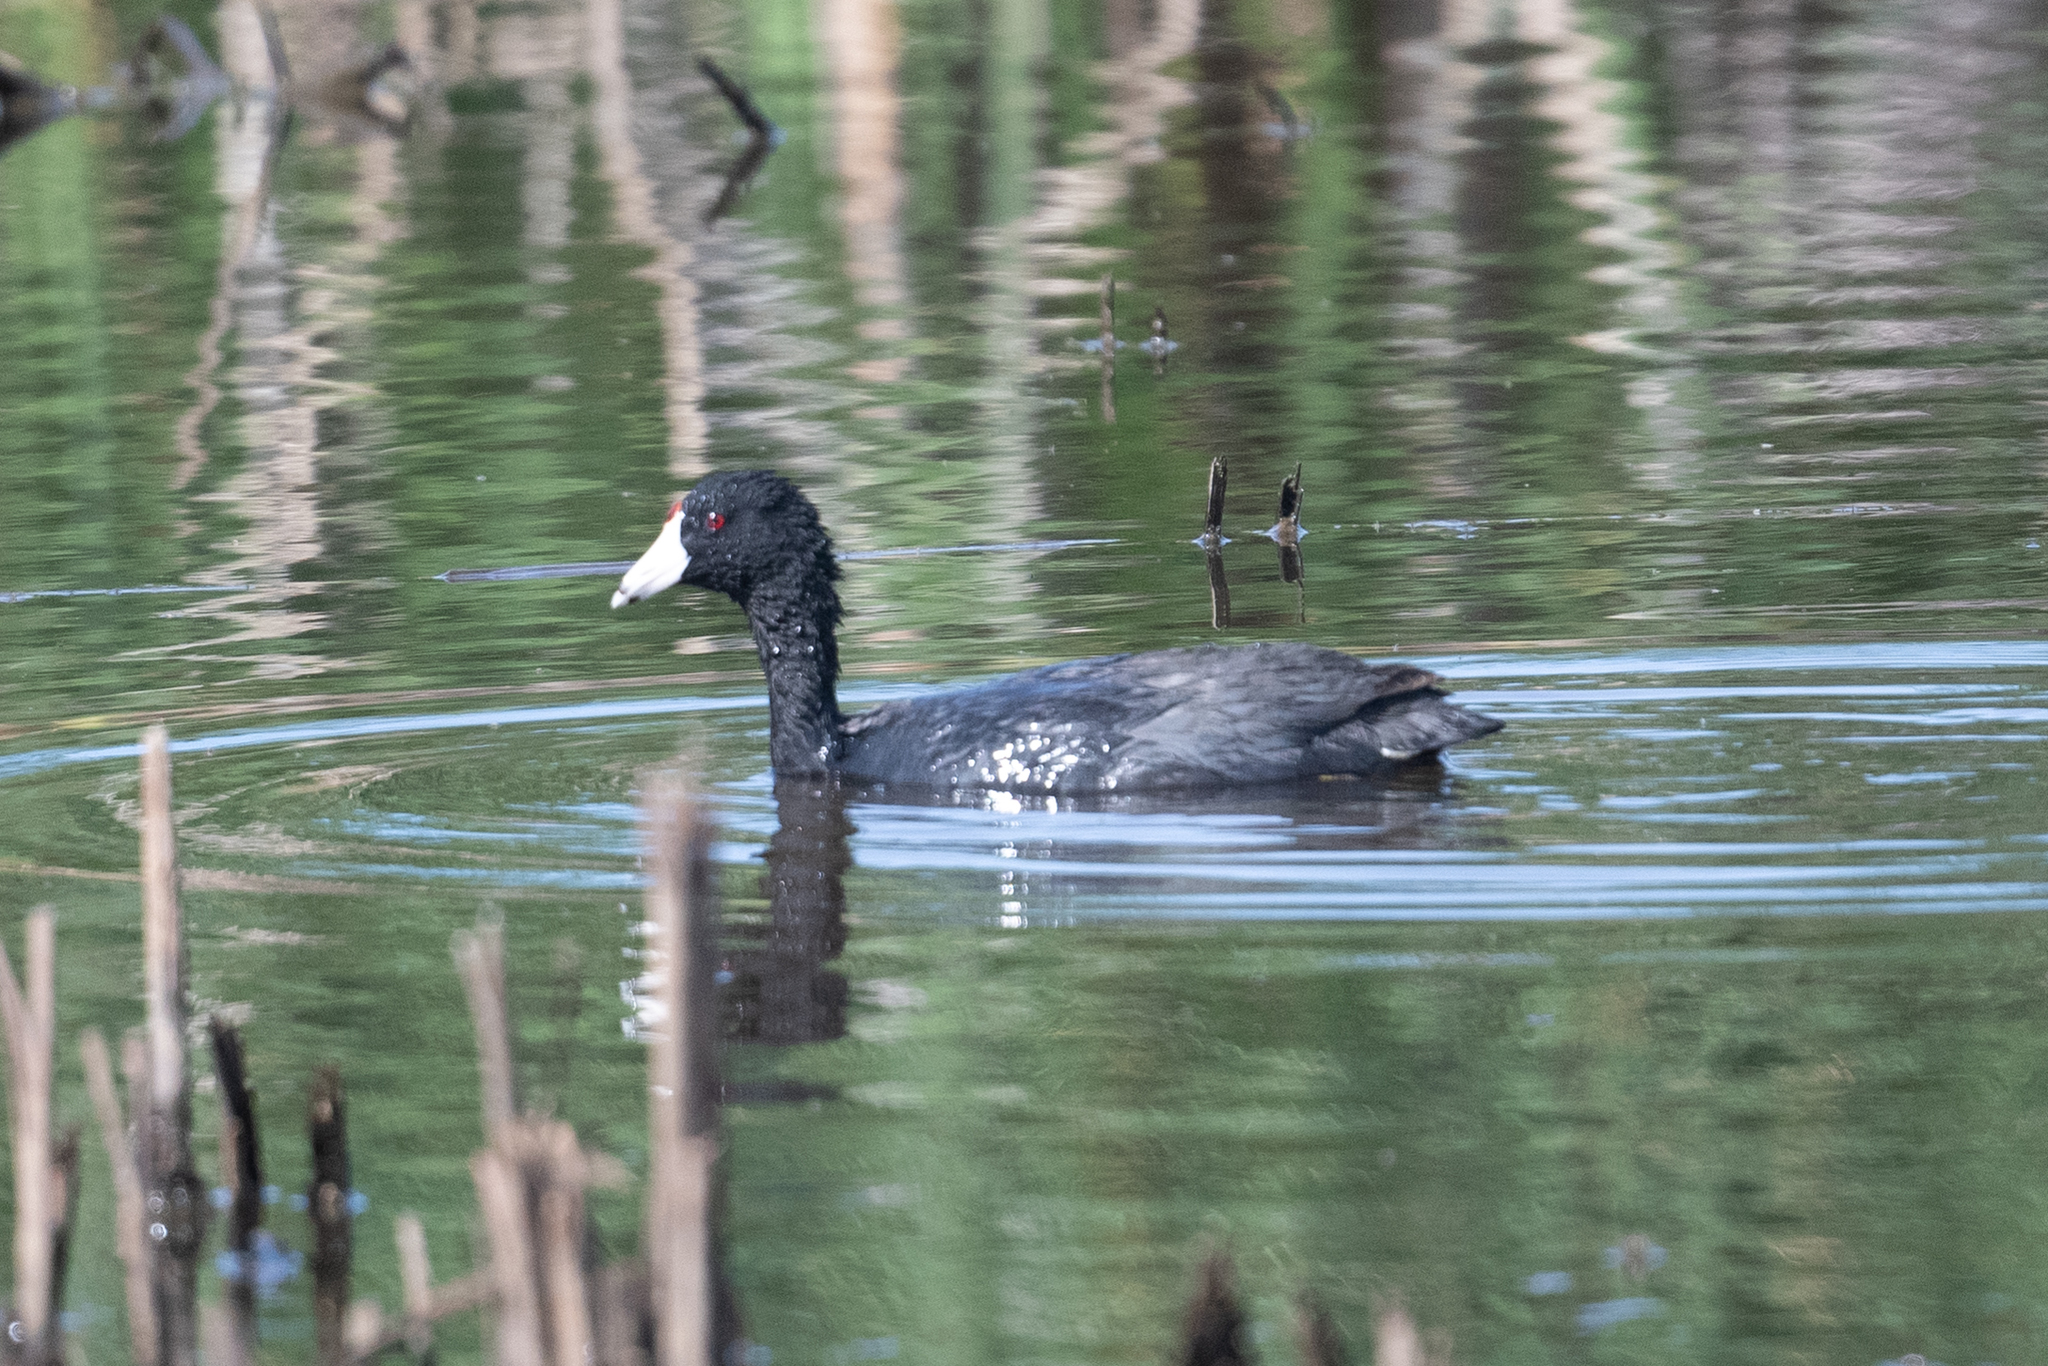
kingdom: Animalia
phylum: Chordata
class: Aves
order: Gruiformes
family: Rallidae
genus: Fulica
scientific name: Fulica americana
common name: American coot
